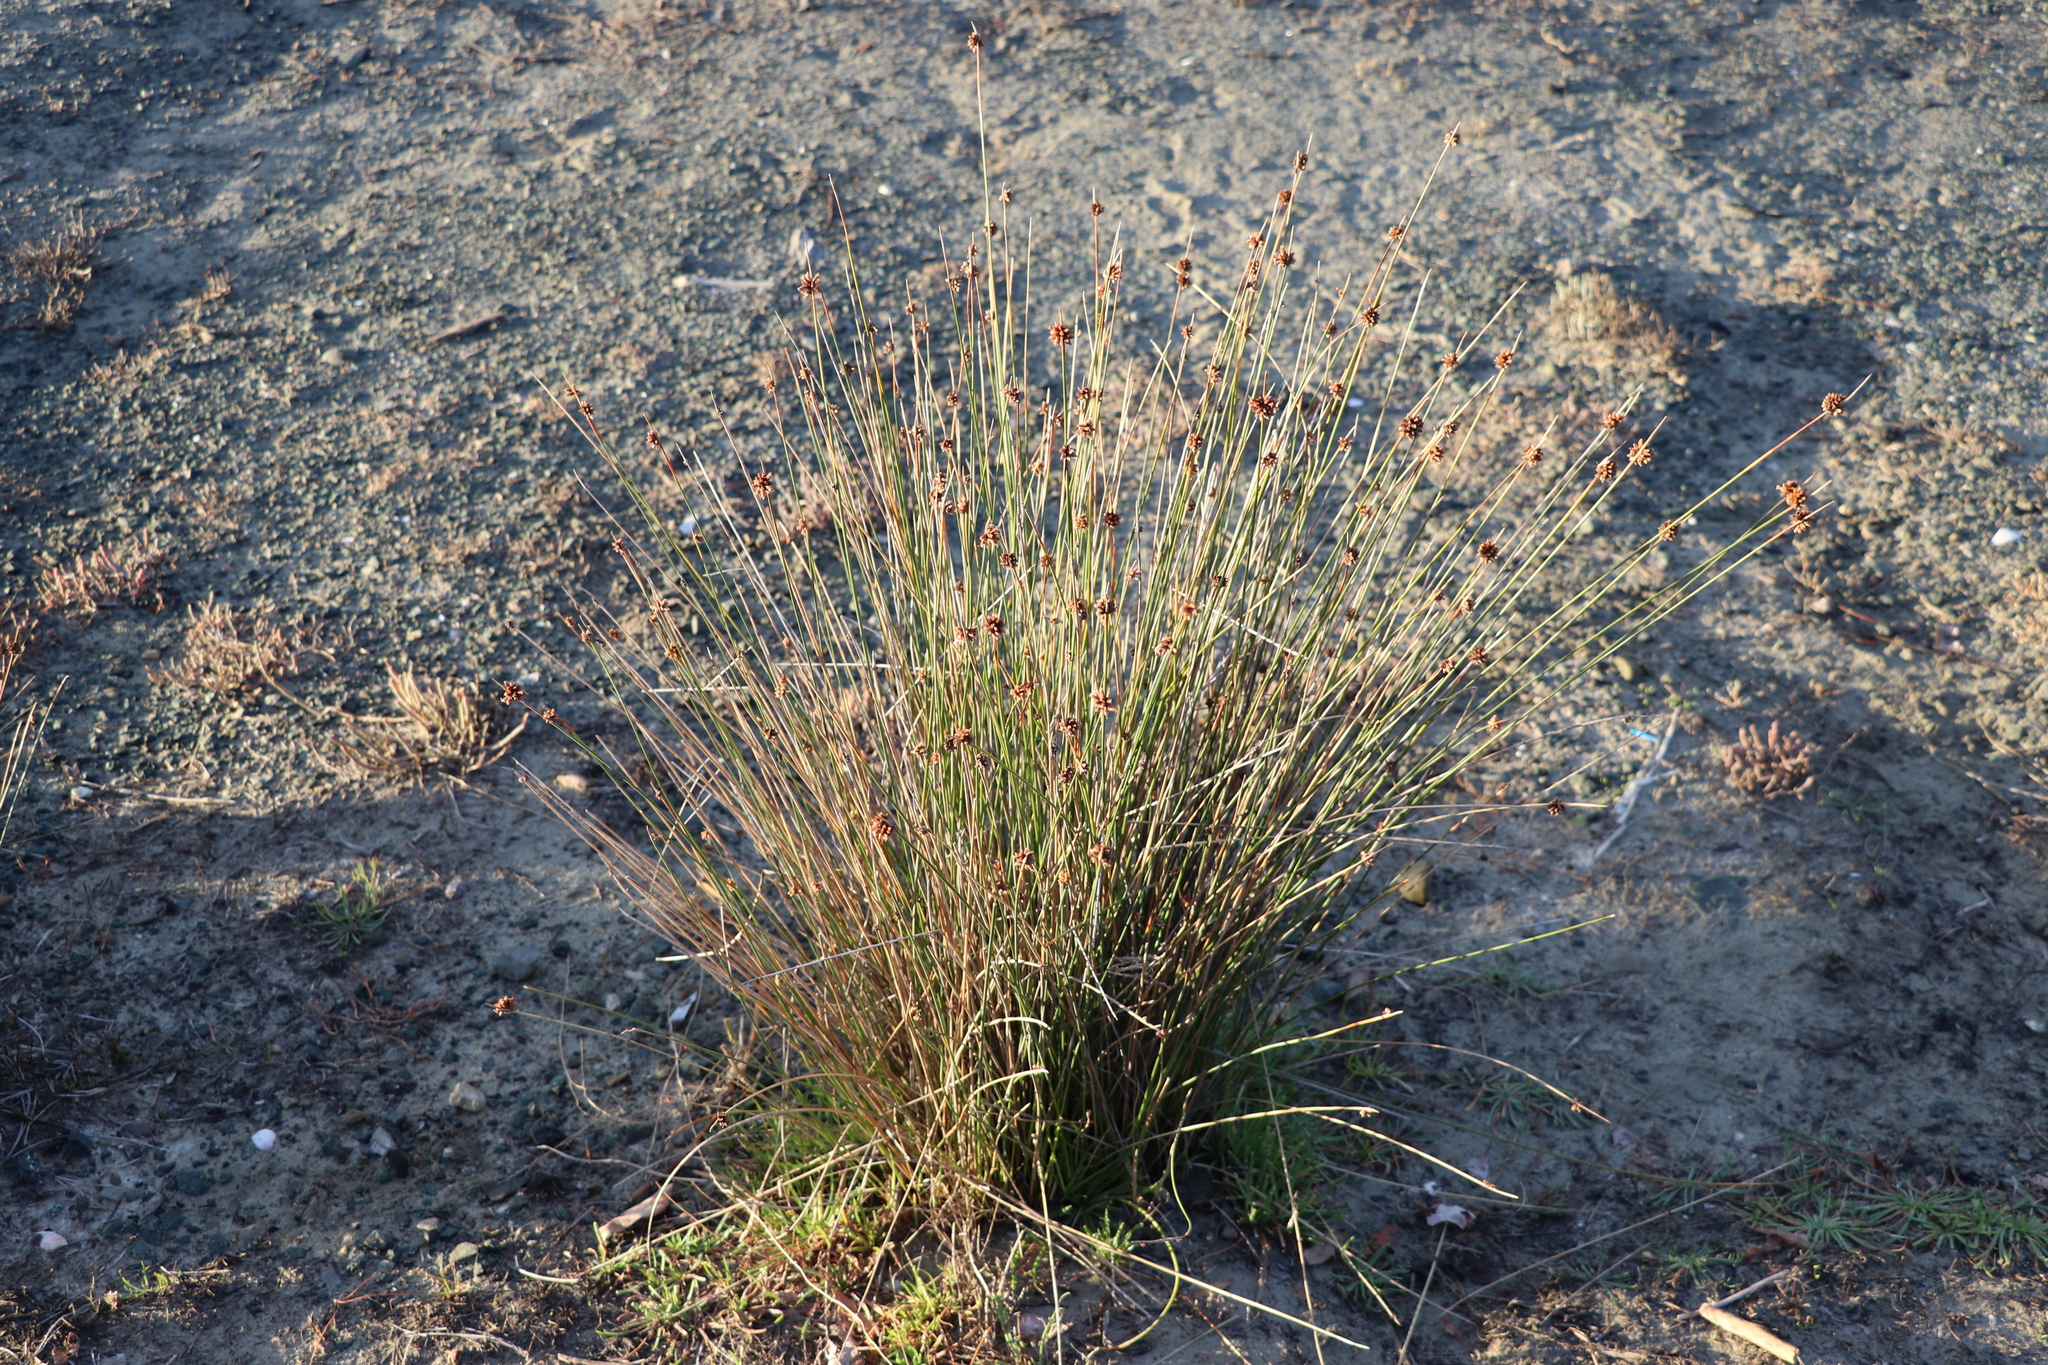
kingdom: Plantae
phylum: Tracheophyta
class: Liliopsida
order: Poales
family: Cyperaceae
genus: Ficinia
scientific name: Ficinia nodosa
